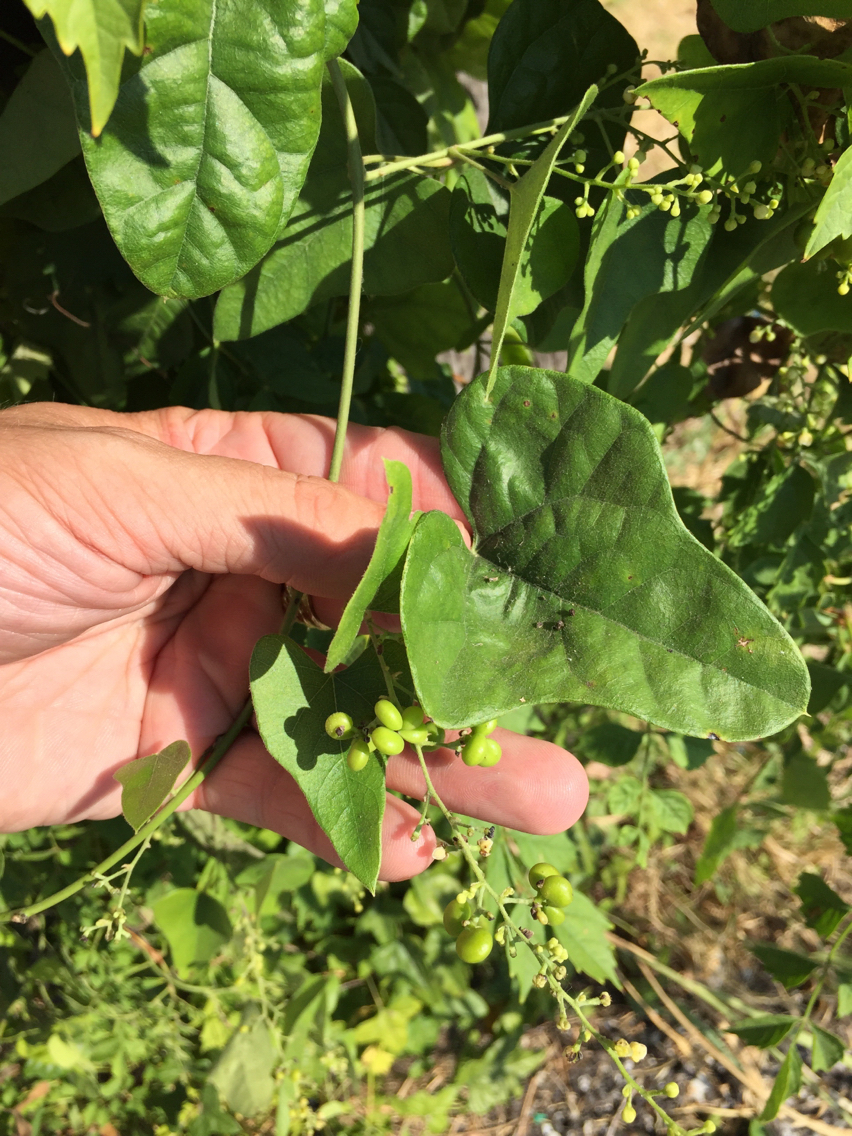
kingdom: Plantae
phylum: Tracheophyta
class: Magnoliopsida
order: Ranunculales
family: Menispermaceae
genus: Cocculus
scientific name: Cocculus carolinus
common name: Carolina moonseed
